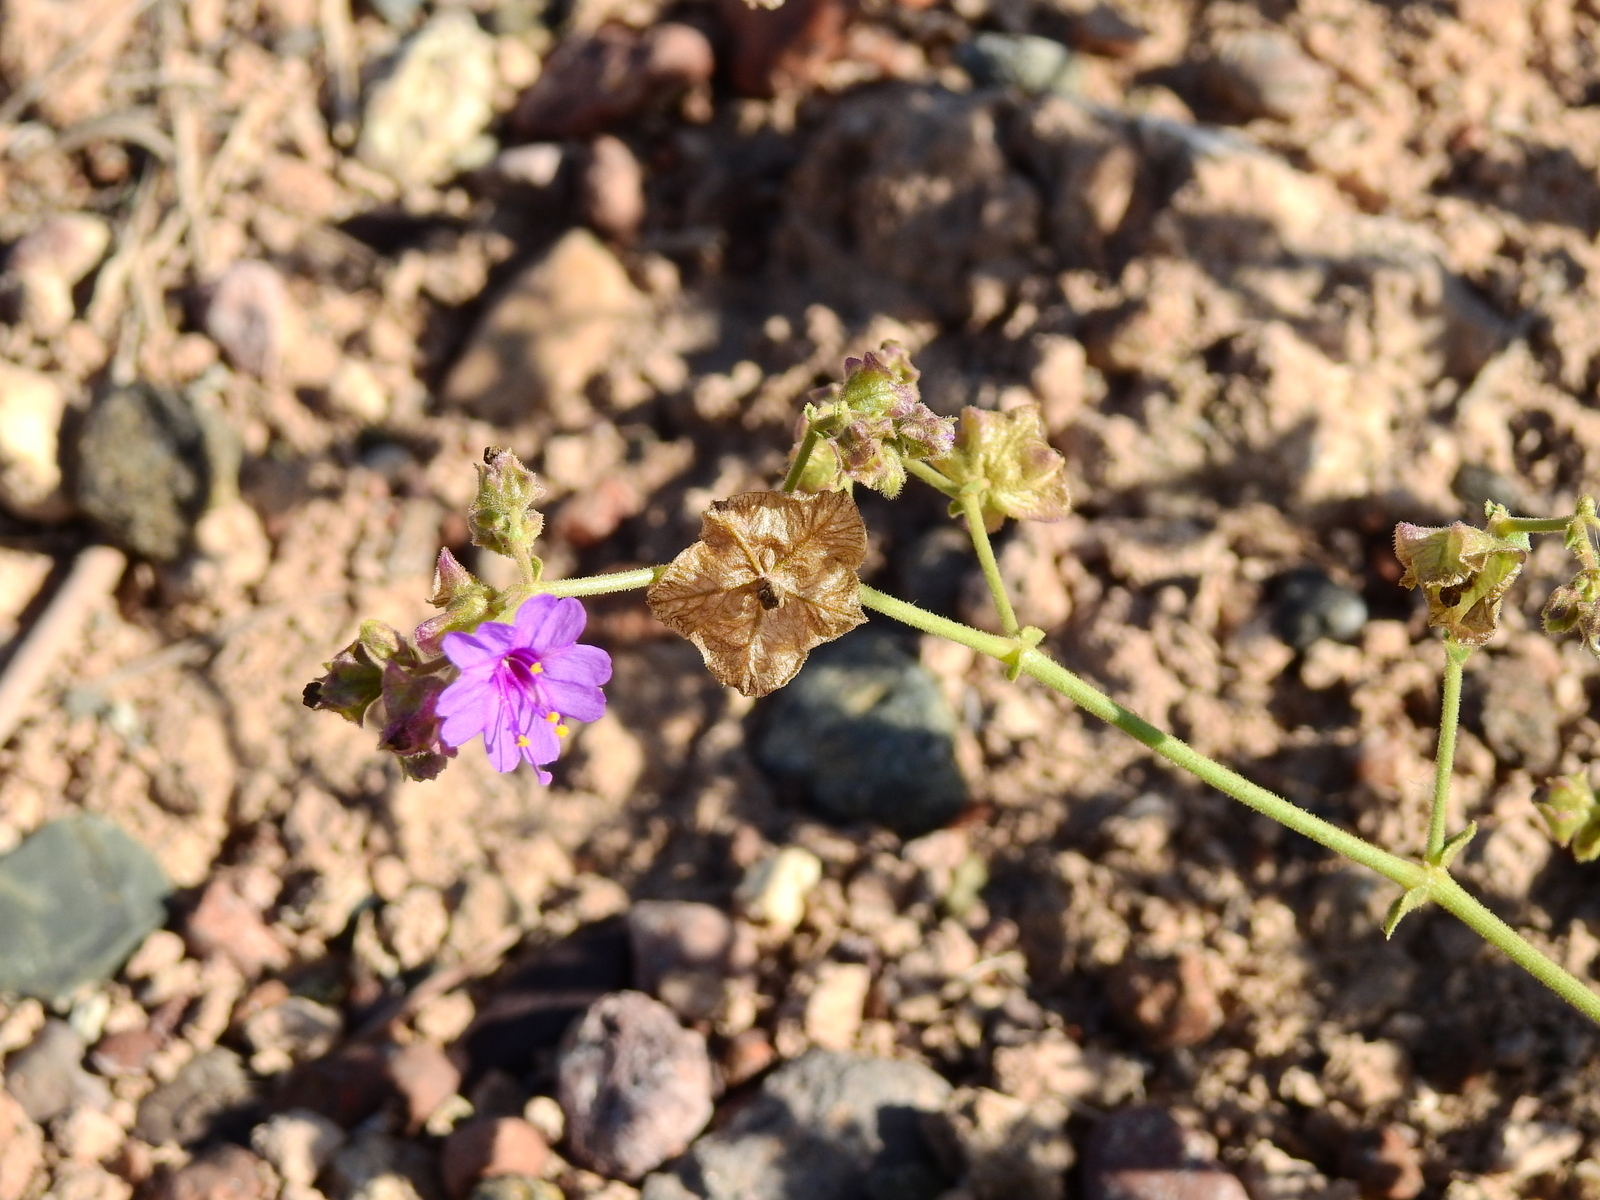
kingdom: Plantae
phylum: Tracheophyta
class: Magnoliopsida
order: Caryophyllales
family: Nyctaginaceae
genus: Mirabilis
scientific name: Mirabilis ovata
